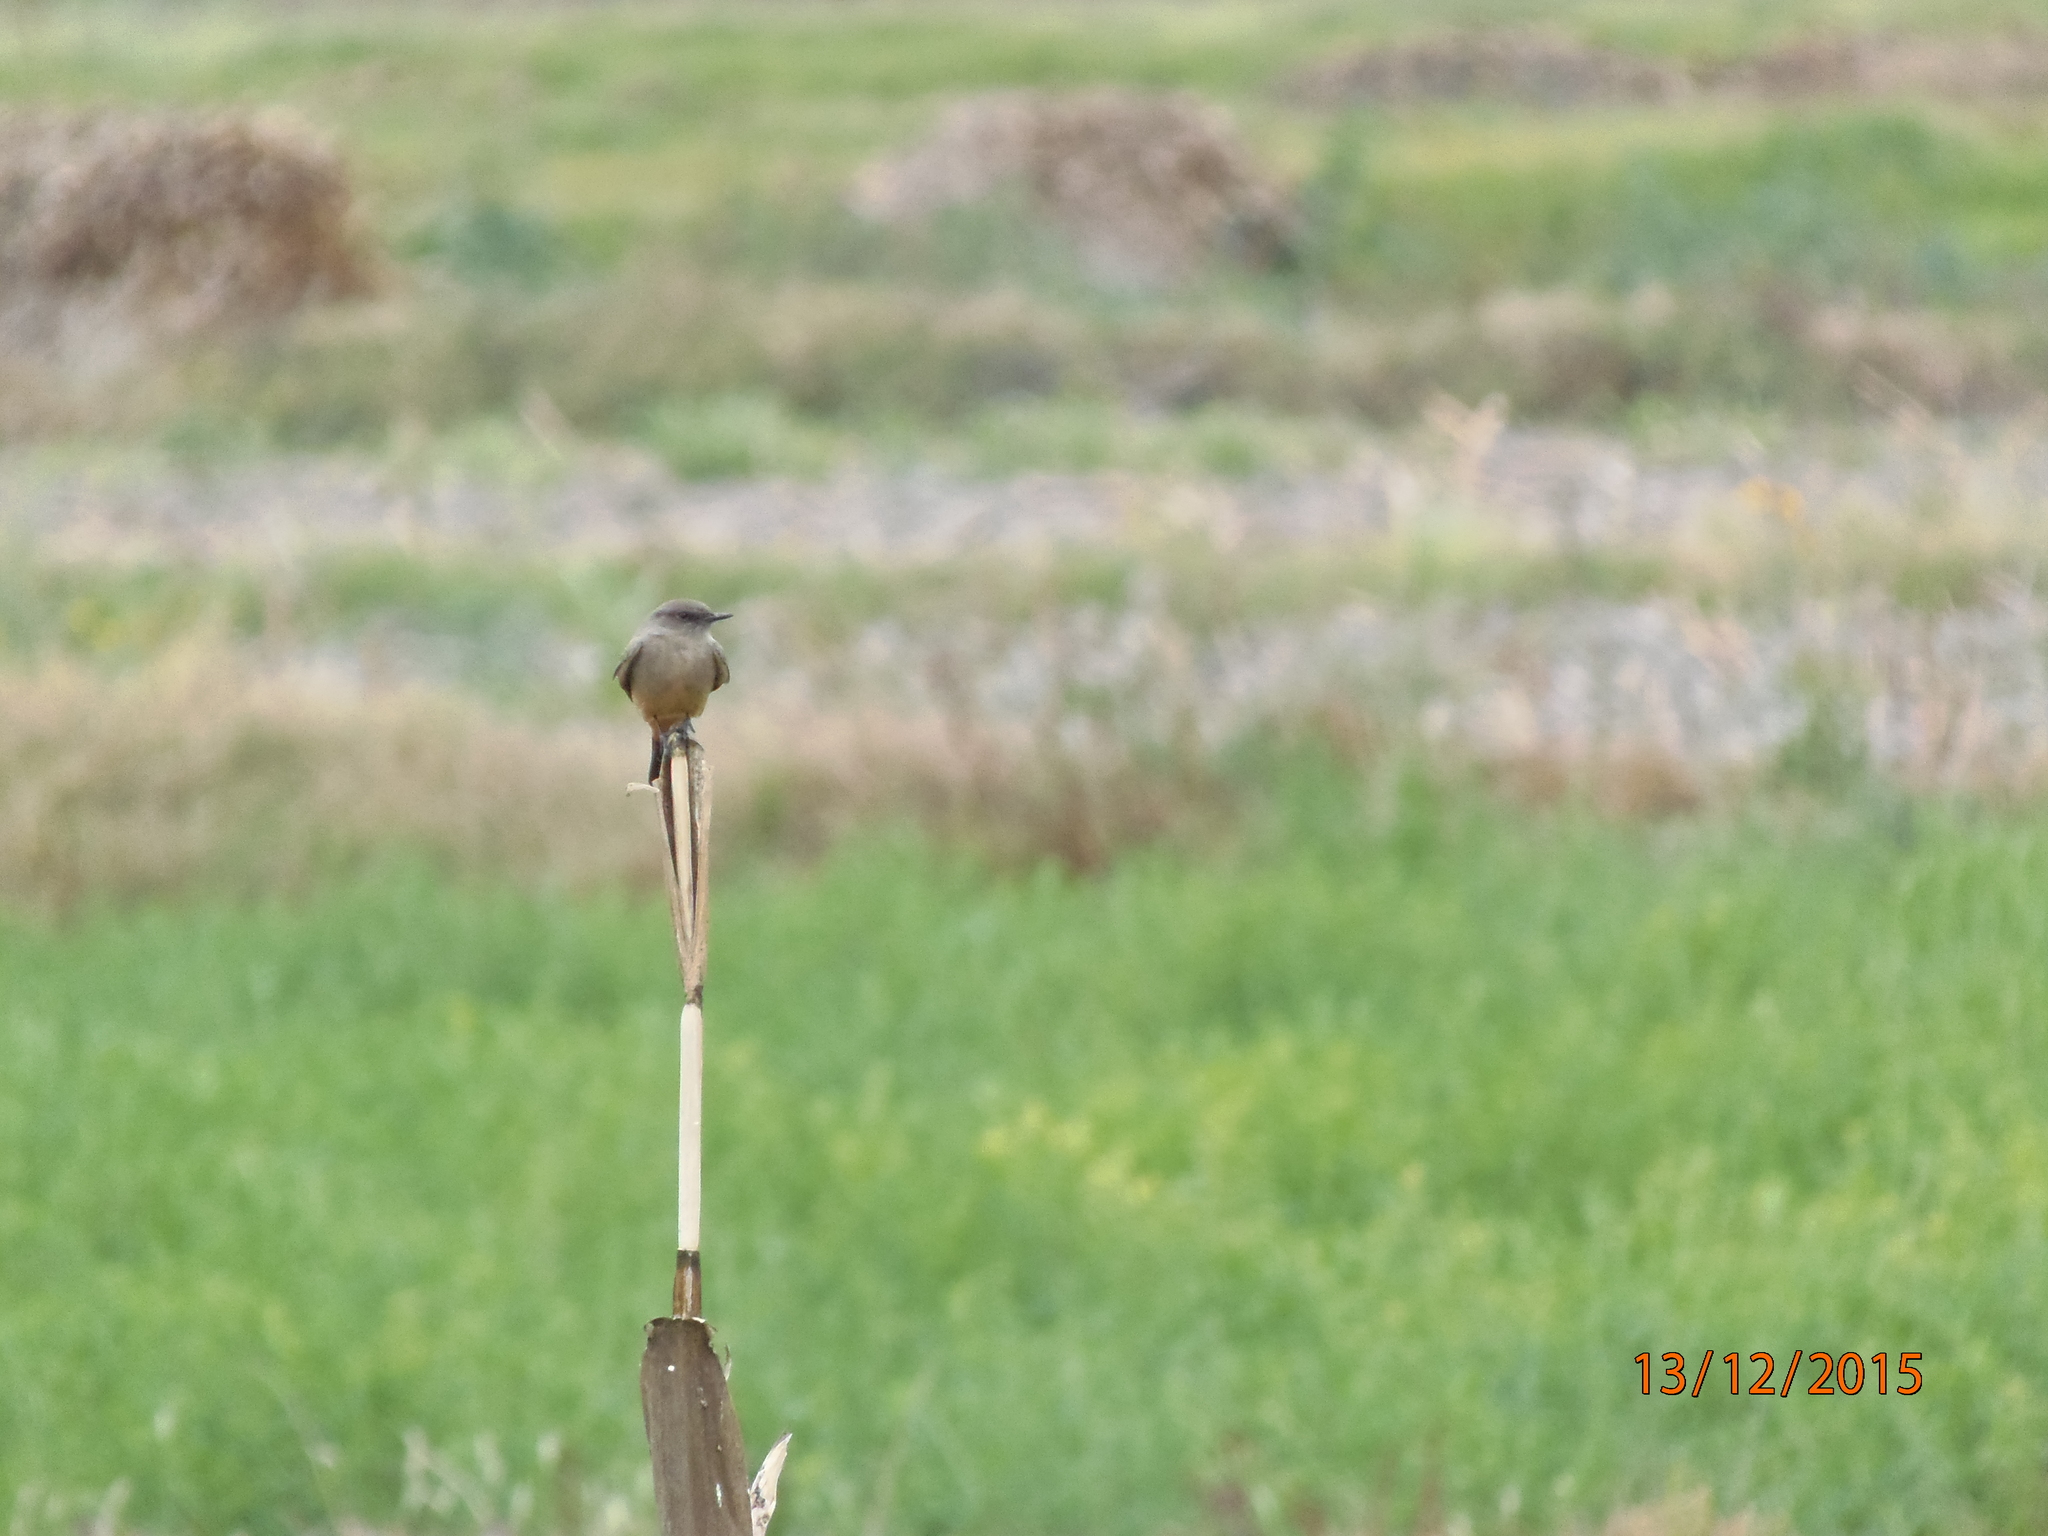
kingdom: Animalia
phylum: Chordata
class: Aves
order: Passeriformes
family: Tyrannidae
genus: Sayornis
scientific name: Sayornis saya
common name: Say's phoebe
